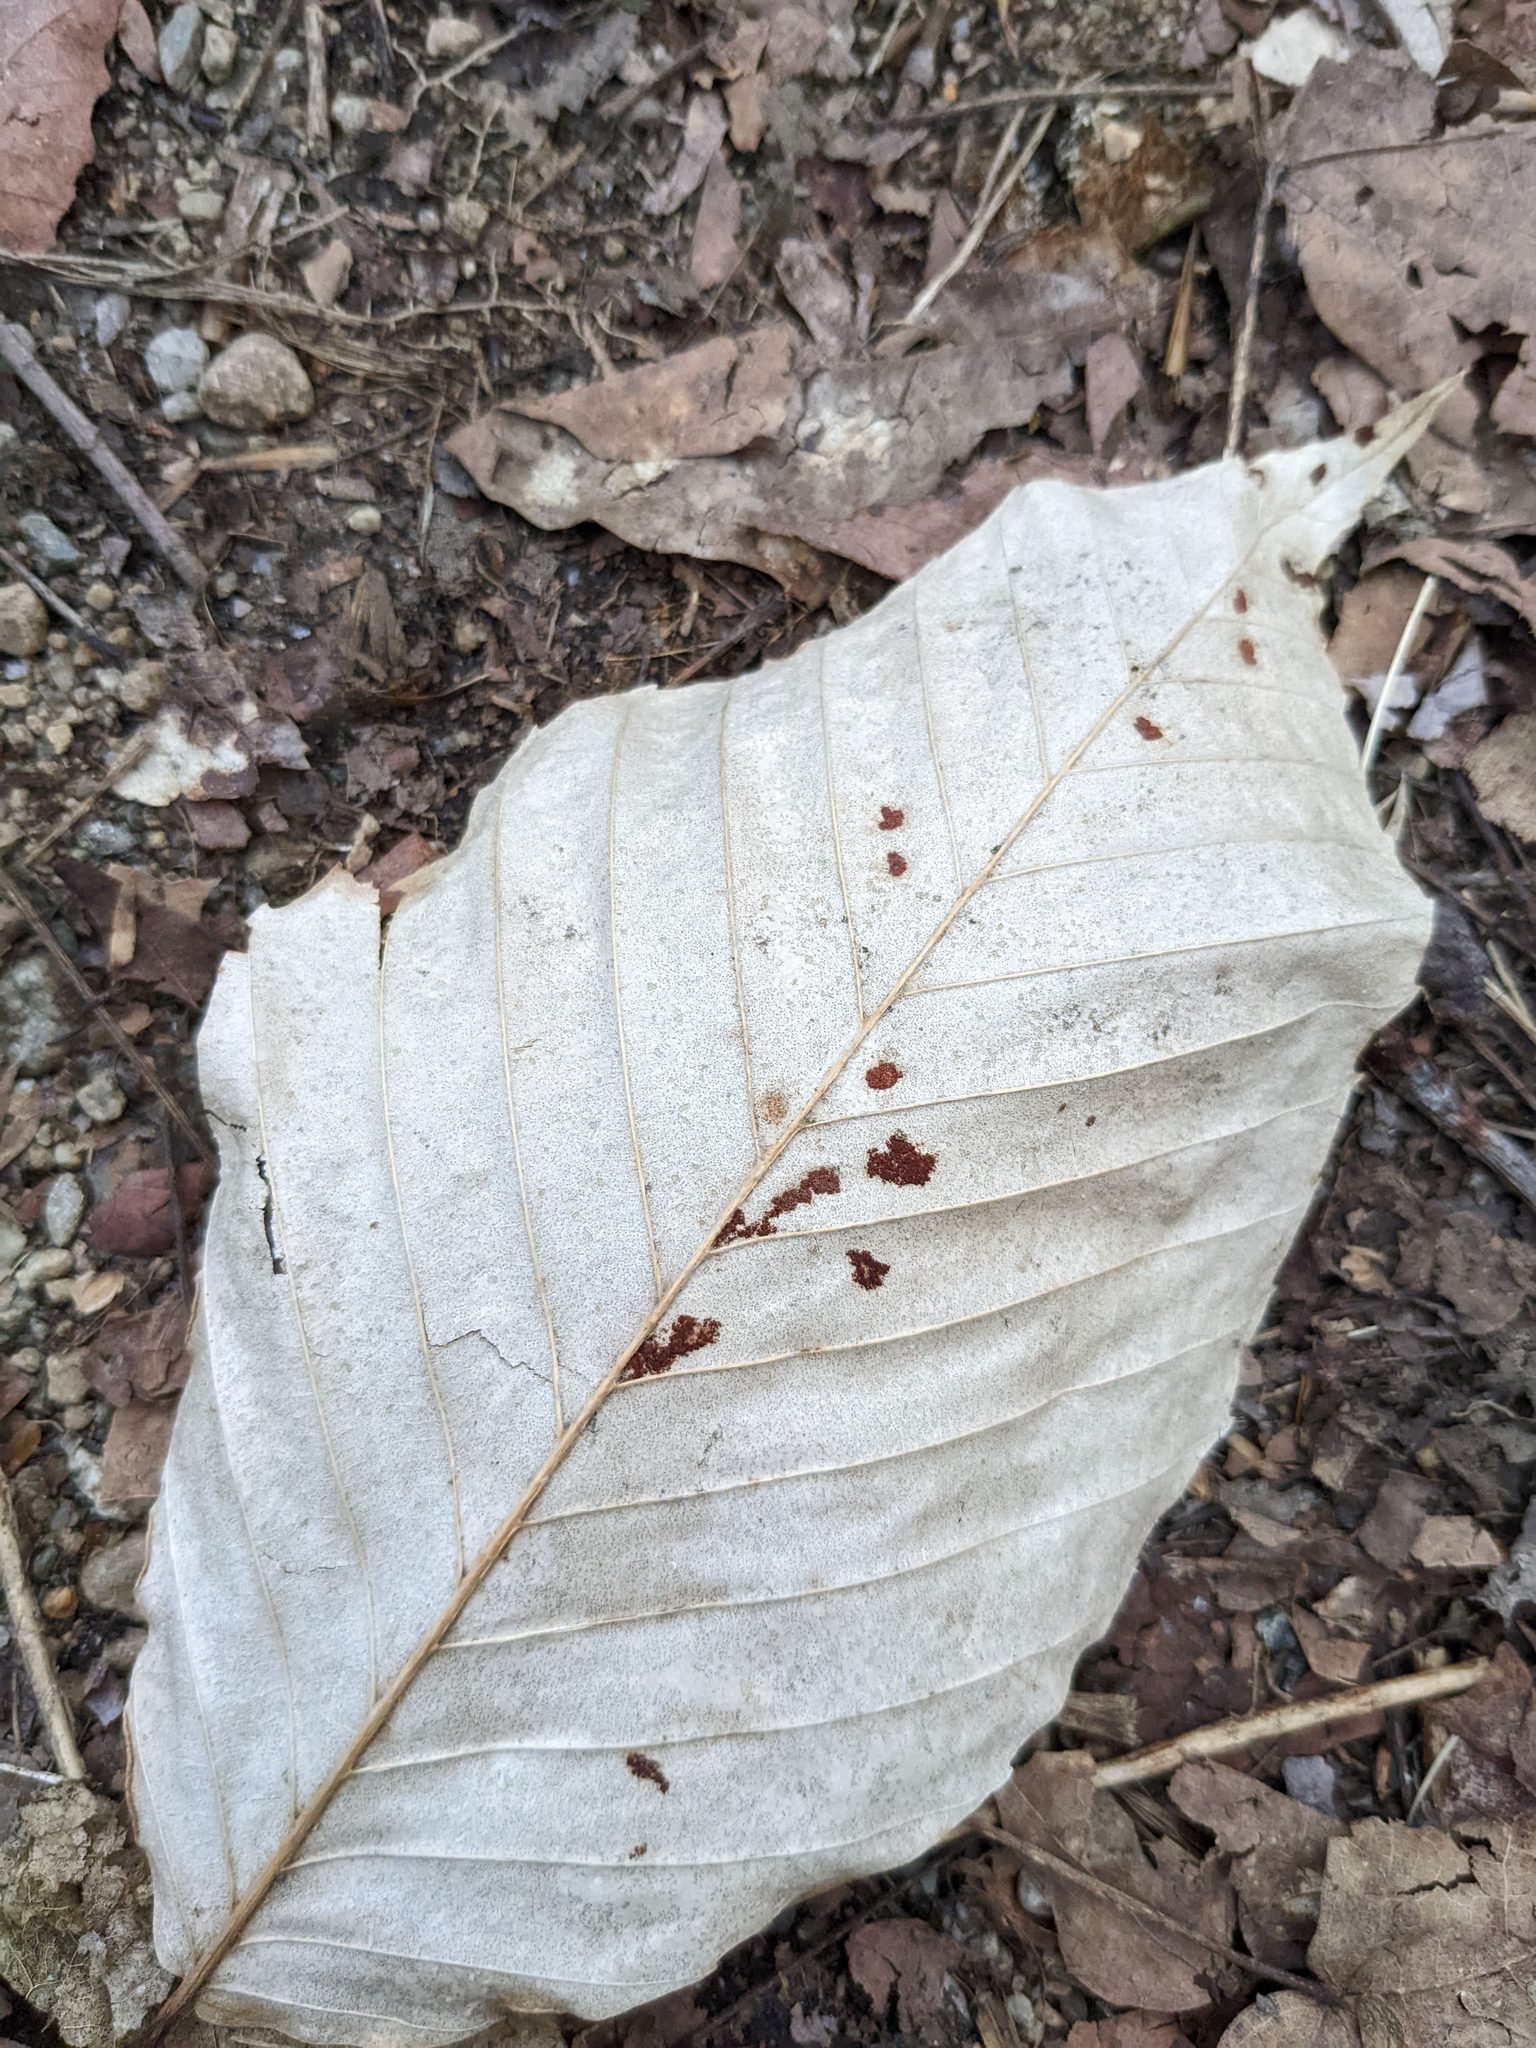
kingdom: Plantae
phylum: Tracheophyta
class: Magnoliopsida
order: Fagales
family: Fagaceae
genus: Fagus
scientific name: Fagus grandifolia
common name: American beech
